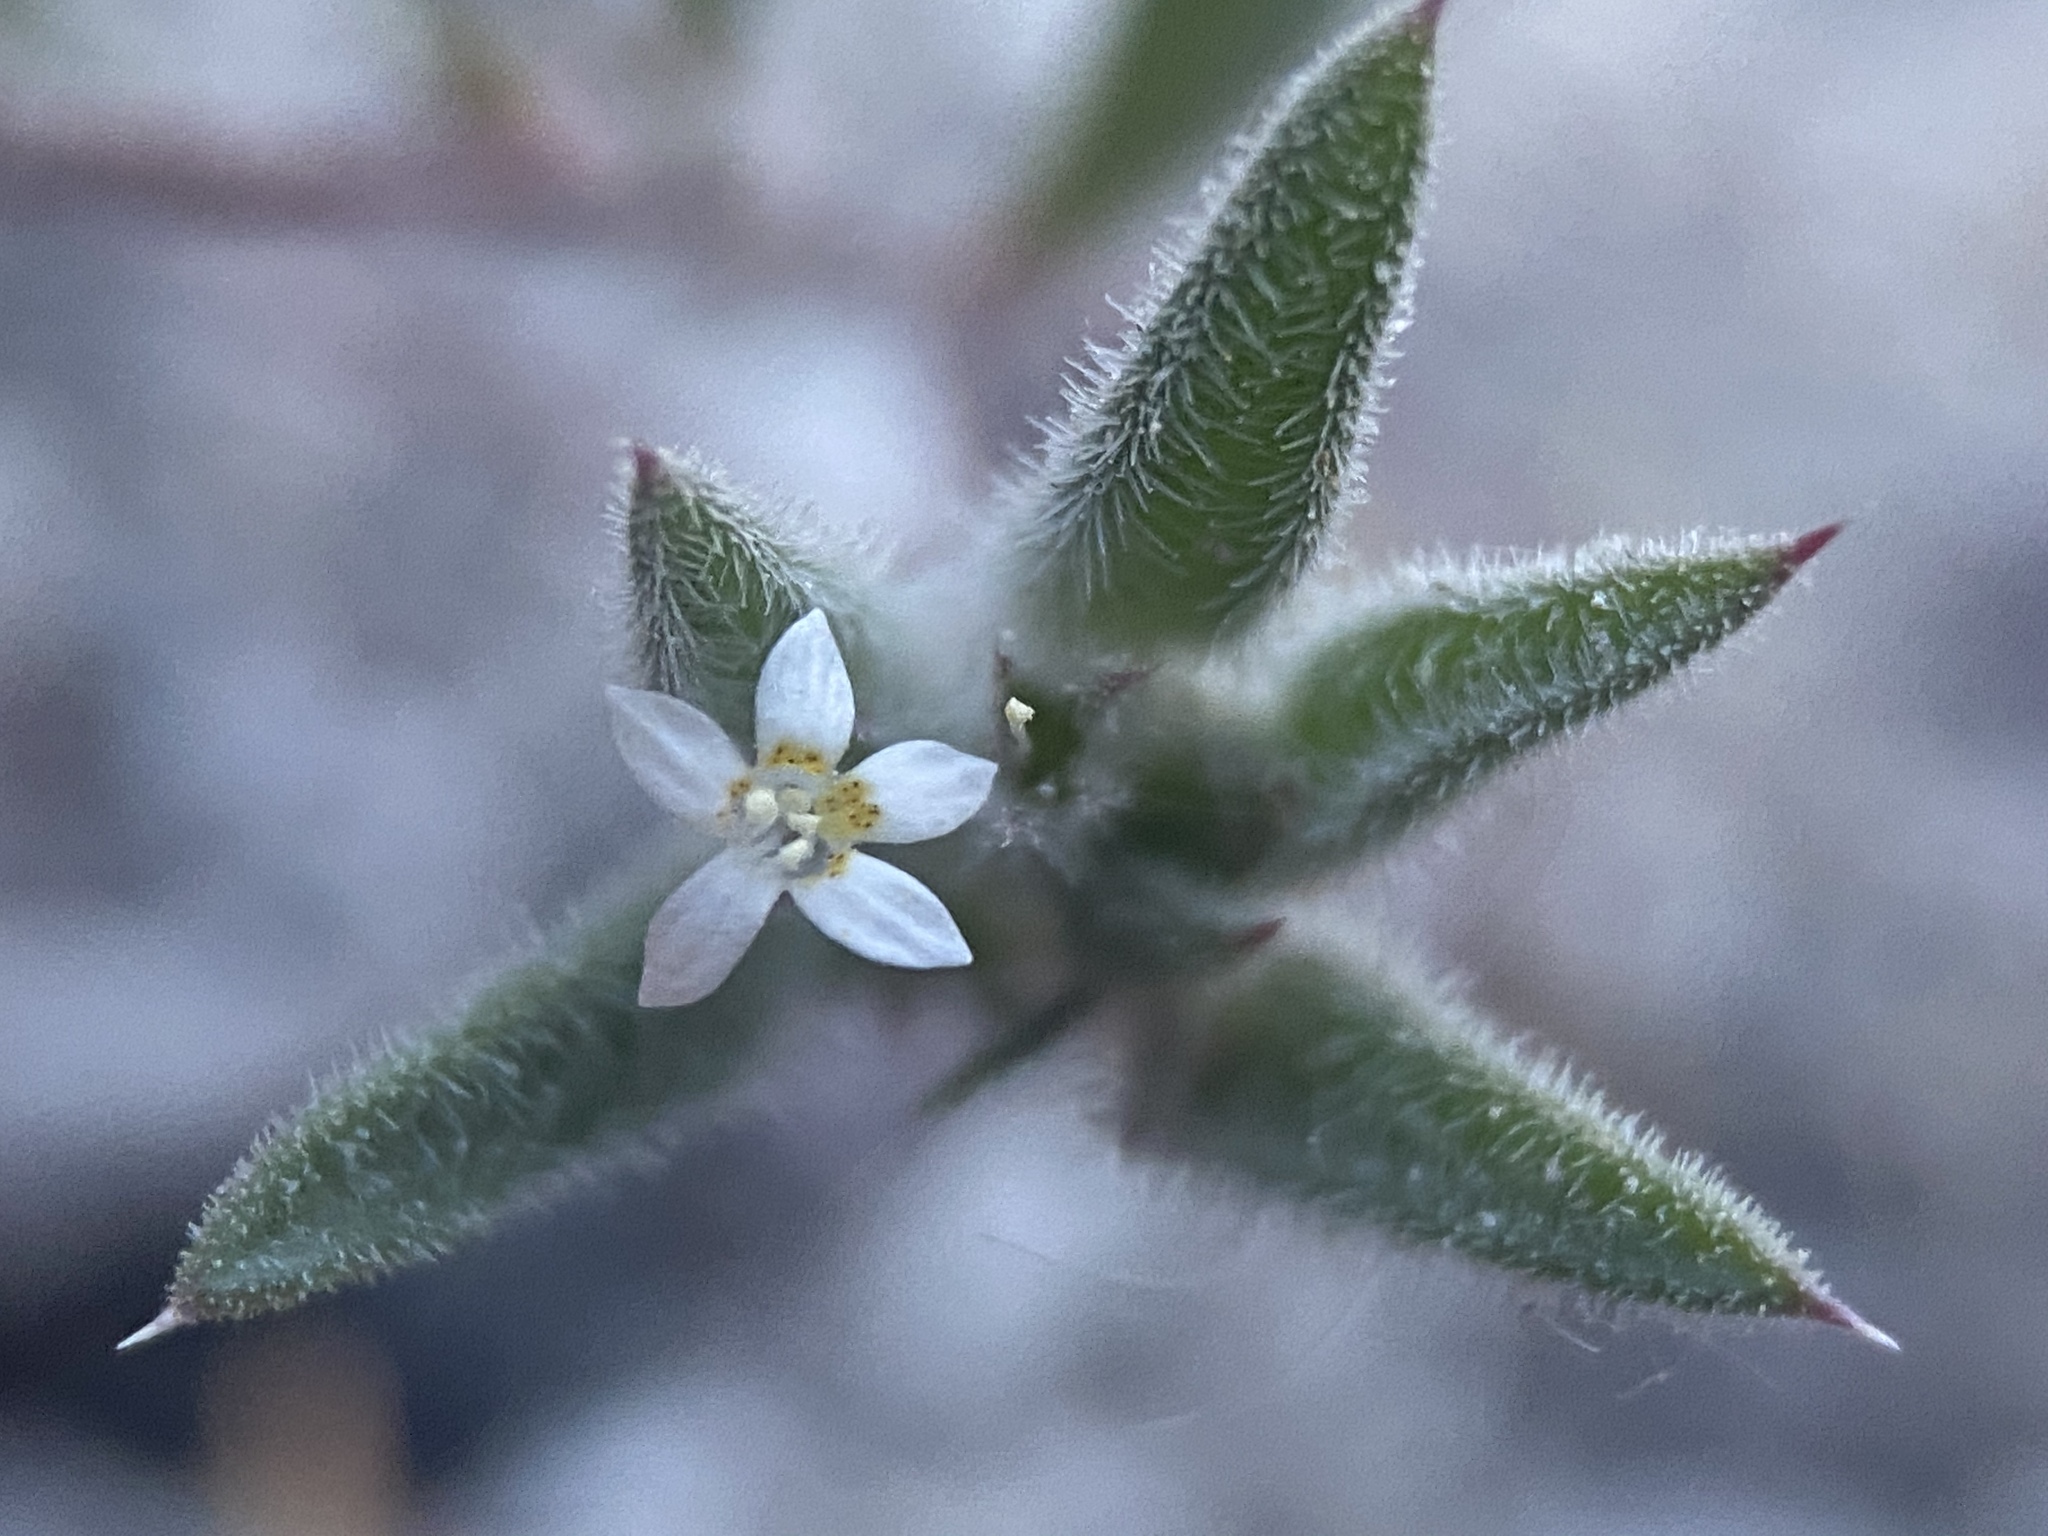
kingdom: Plantae
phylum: Tracheophyta
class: Magnoliopsida
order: Ericales
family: Polemoniaceae
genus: Loeseliastrum
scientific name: Loeseliastrum depressum
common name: Depressed ipomopsis
